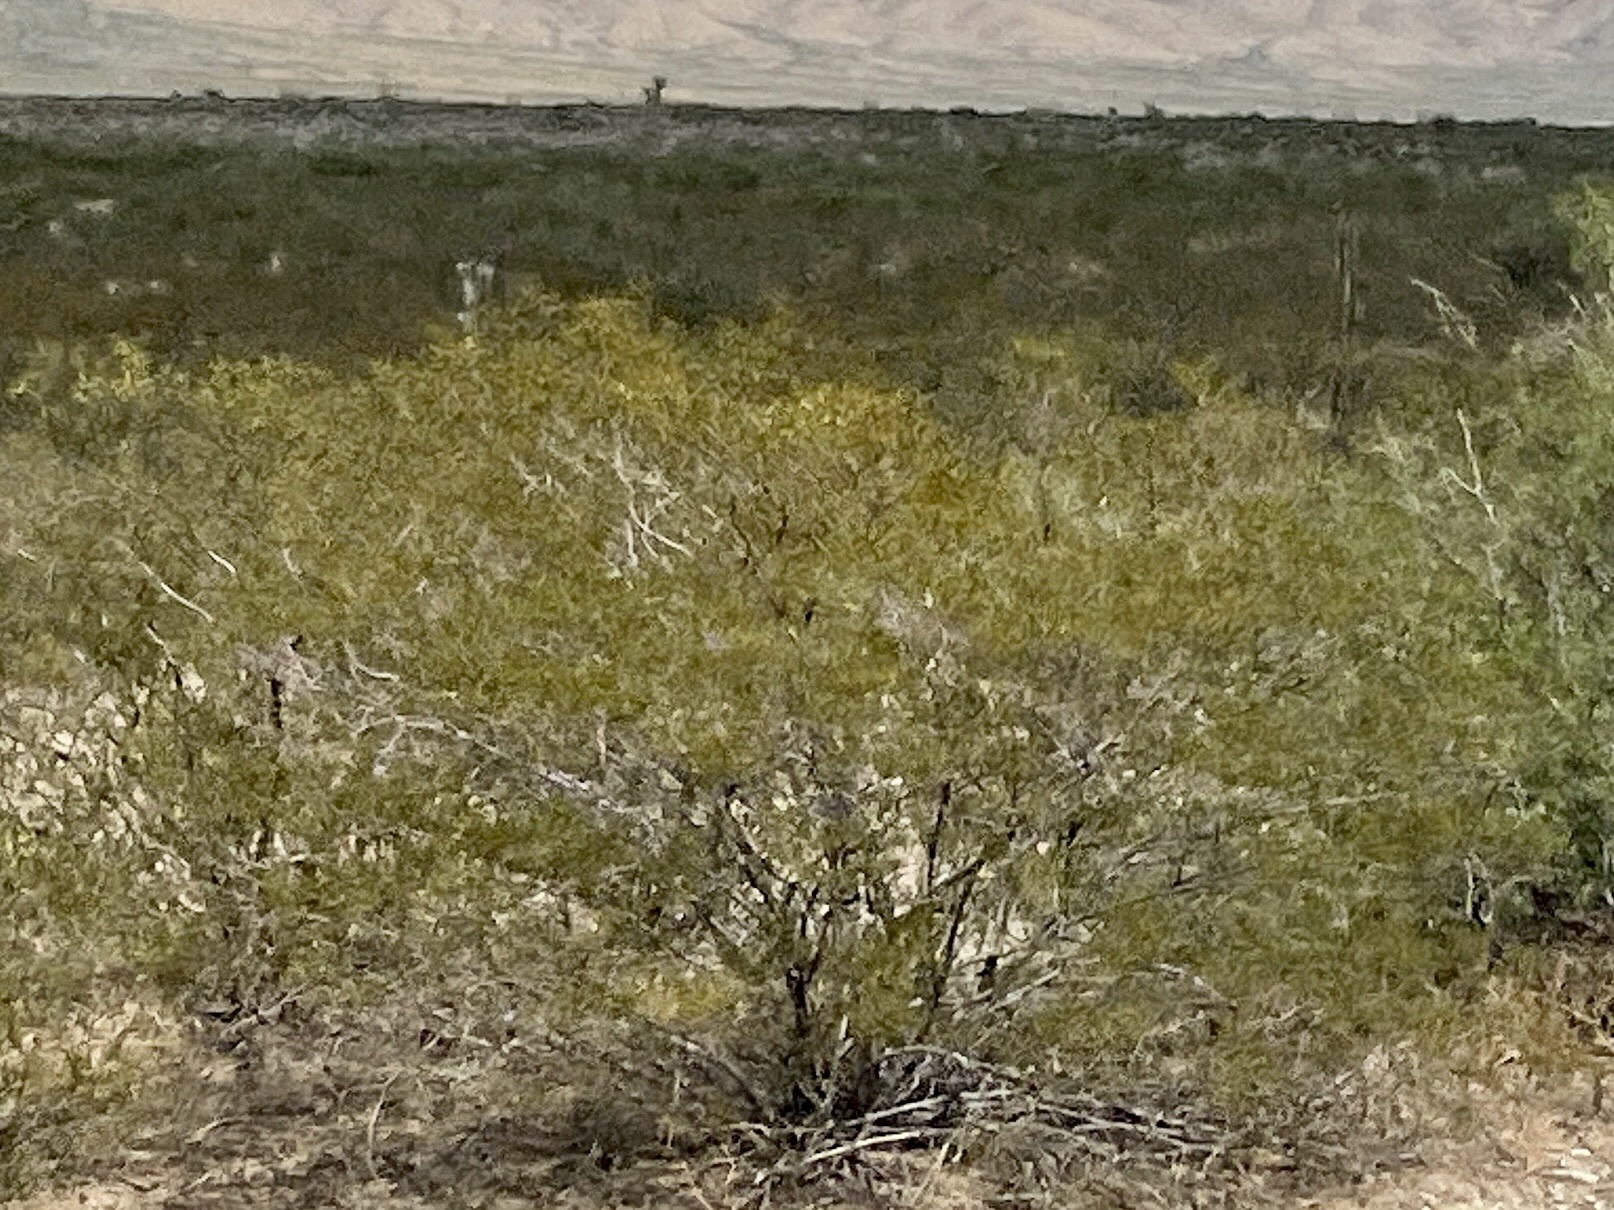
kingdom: Plantae
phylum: Tracheophyta
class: Magnoliopsida
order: Zygophyllales
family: Zygophyllaceae
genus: Larrea
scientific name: Larrea tridentata
